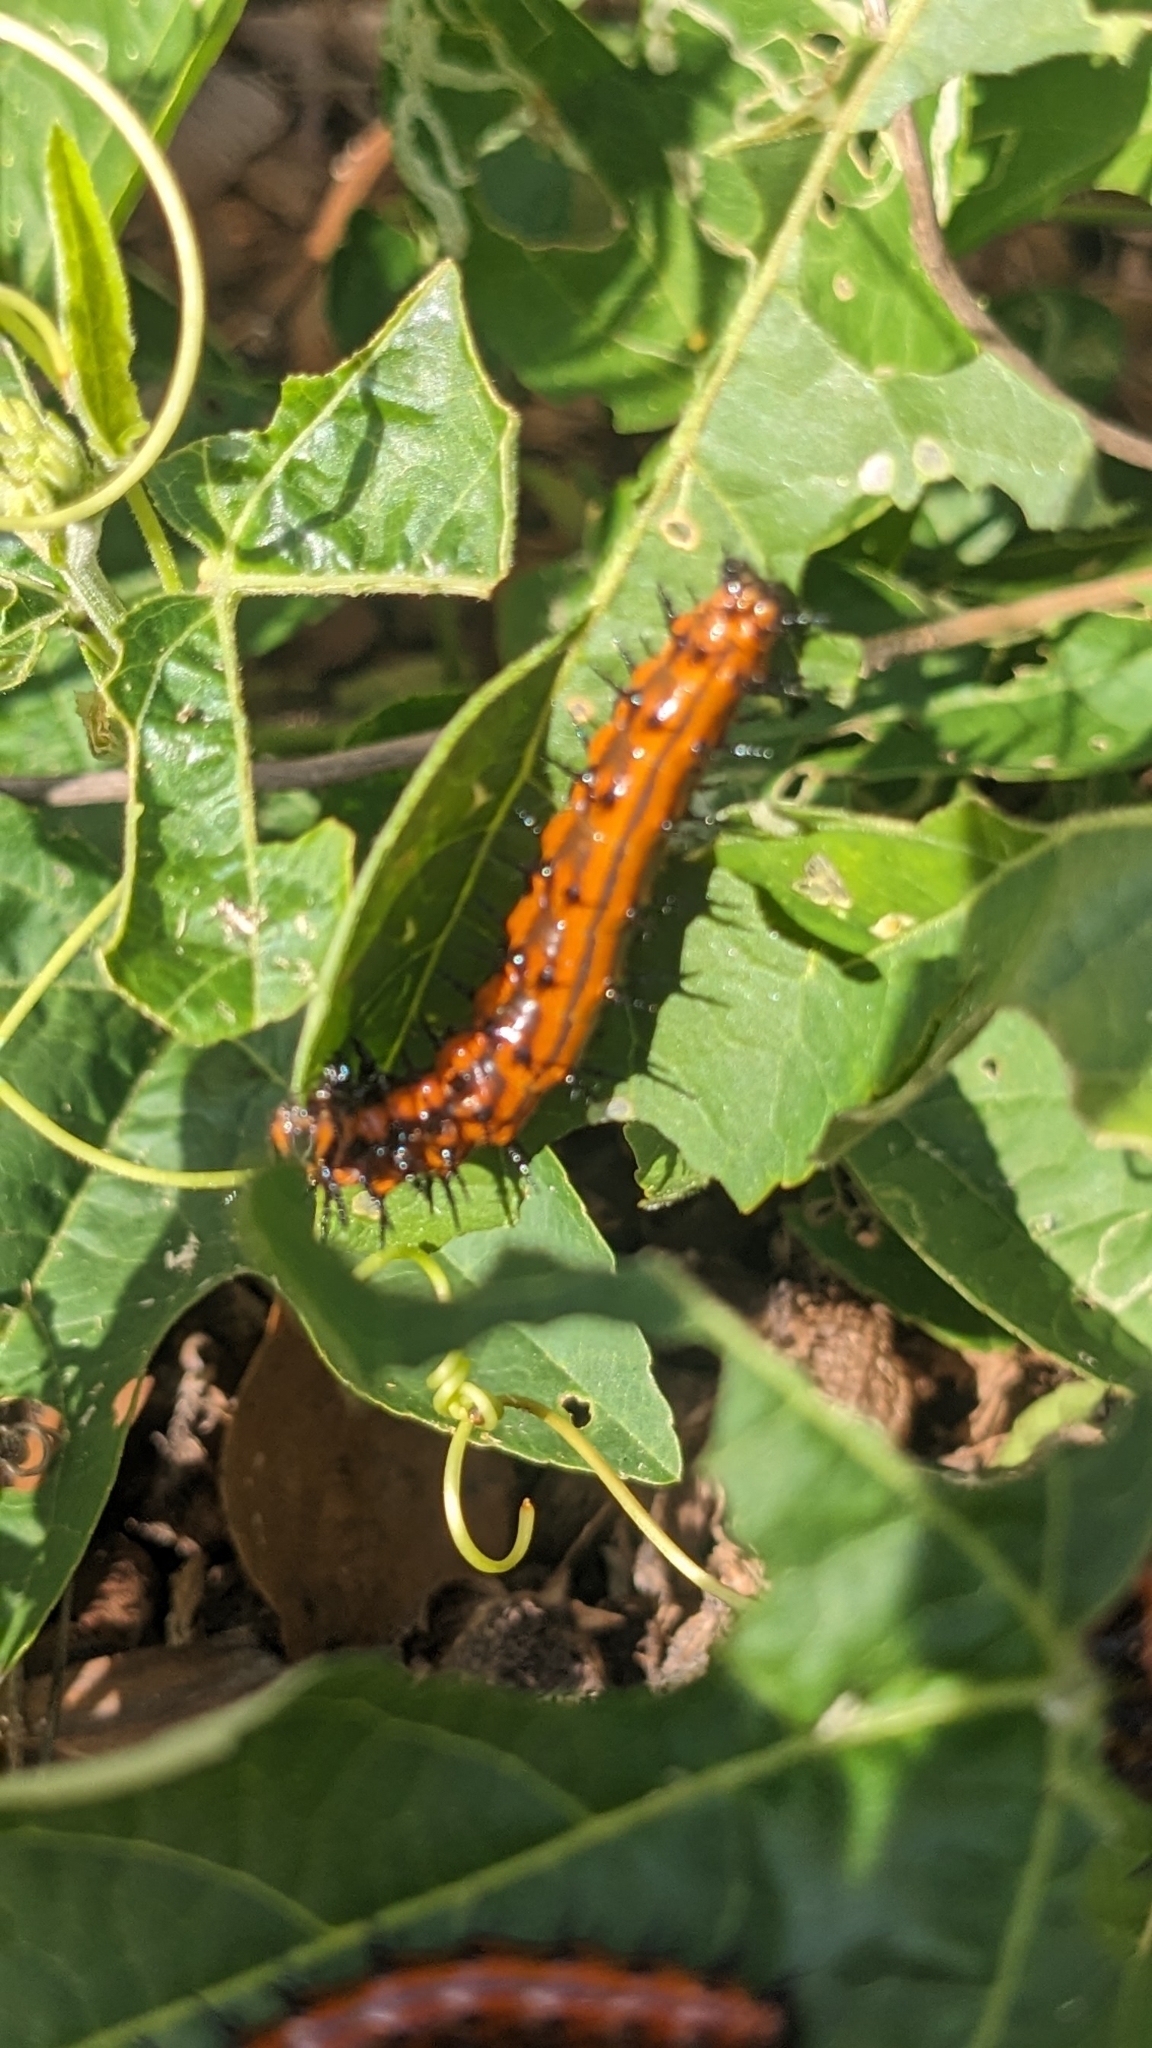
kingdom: Animalia
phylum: Arthropoda
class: Insecta
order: Lepidoptera
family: Nymphalidae
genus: Dione
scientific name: Dione vanillae
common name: Gulf fritillary
